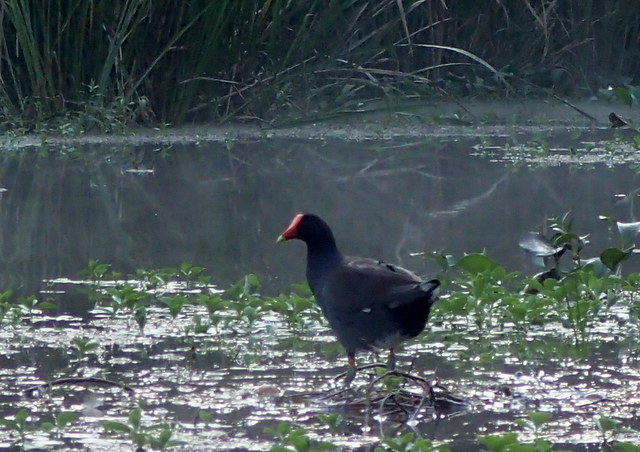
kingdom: Animalia
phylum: Chordata
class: Aves
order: Gruiformes
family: Rallidae
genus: Gallinula
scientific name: Gallinula chloropus
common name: Common moorhen
